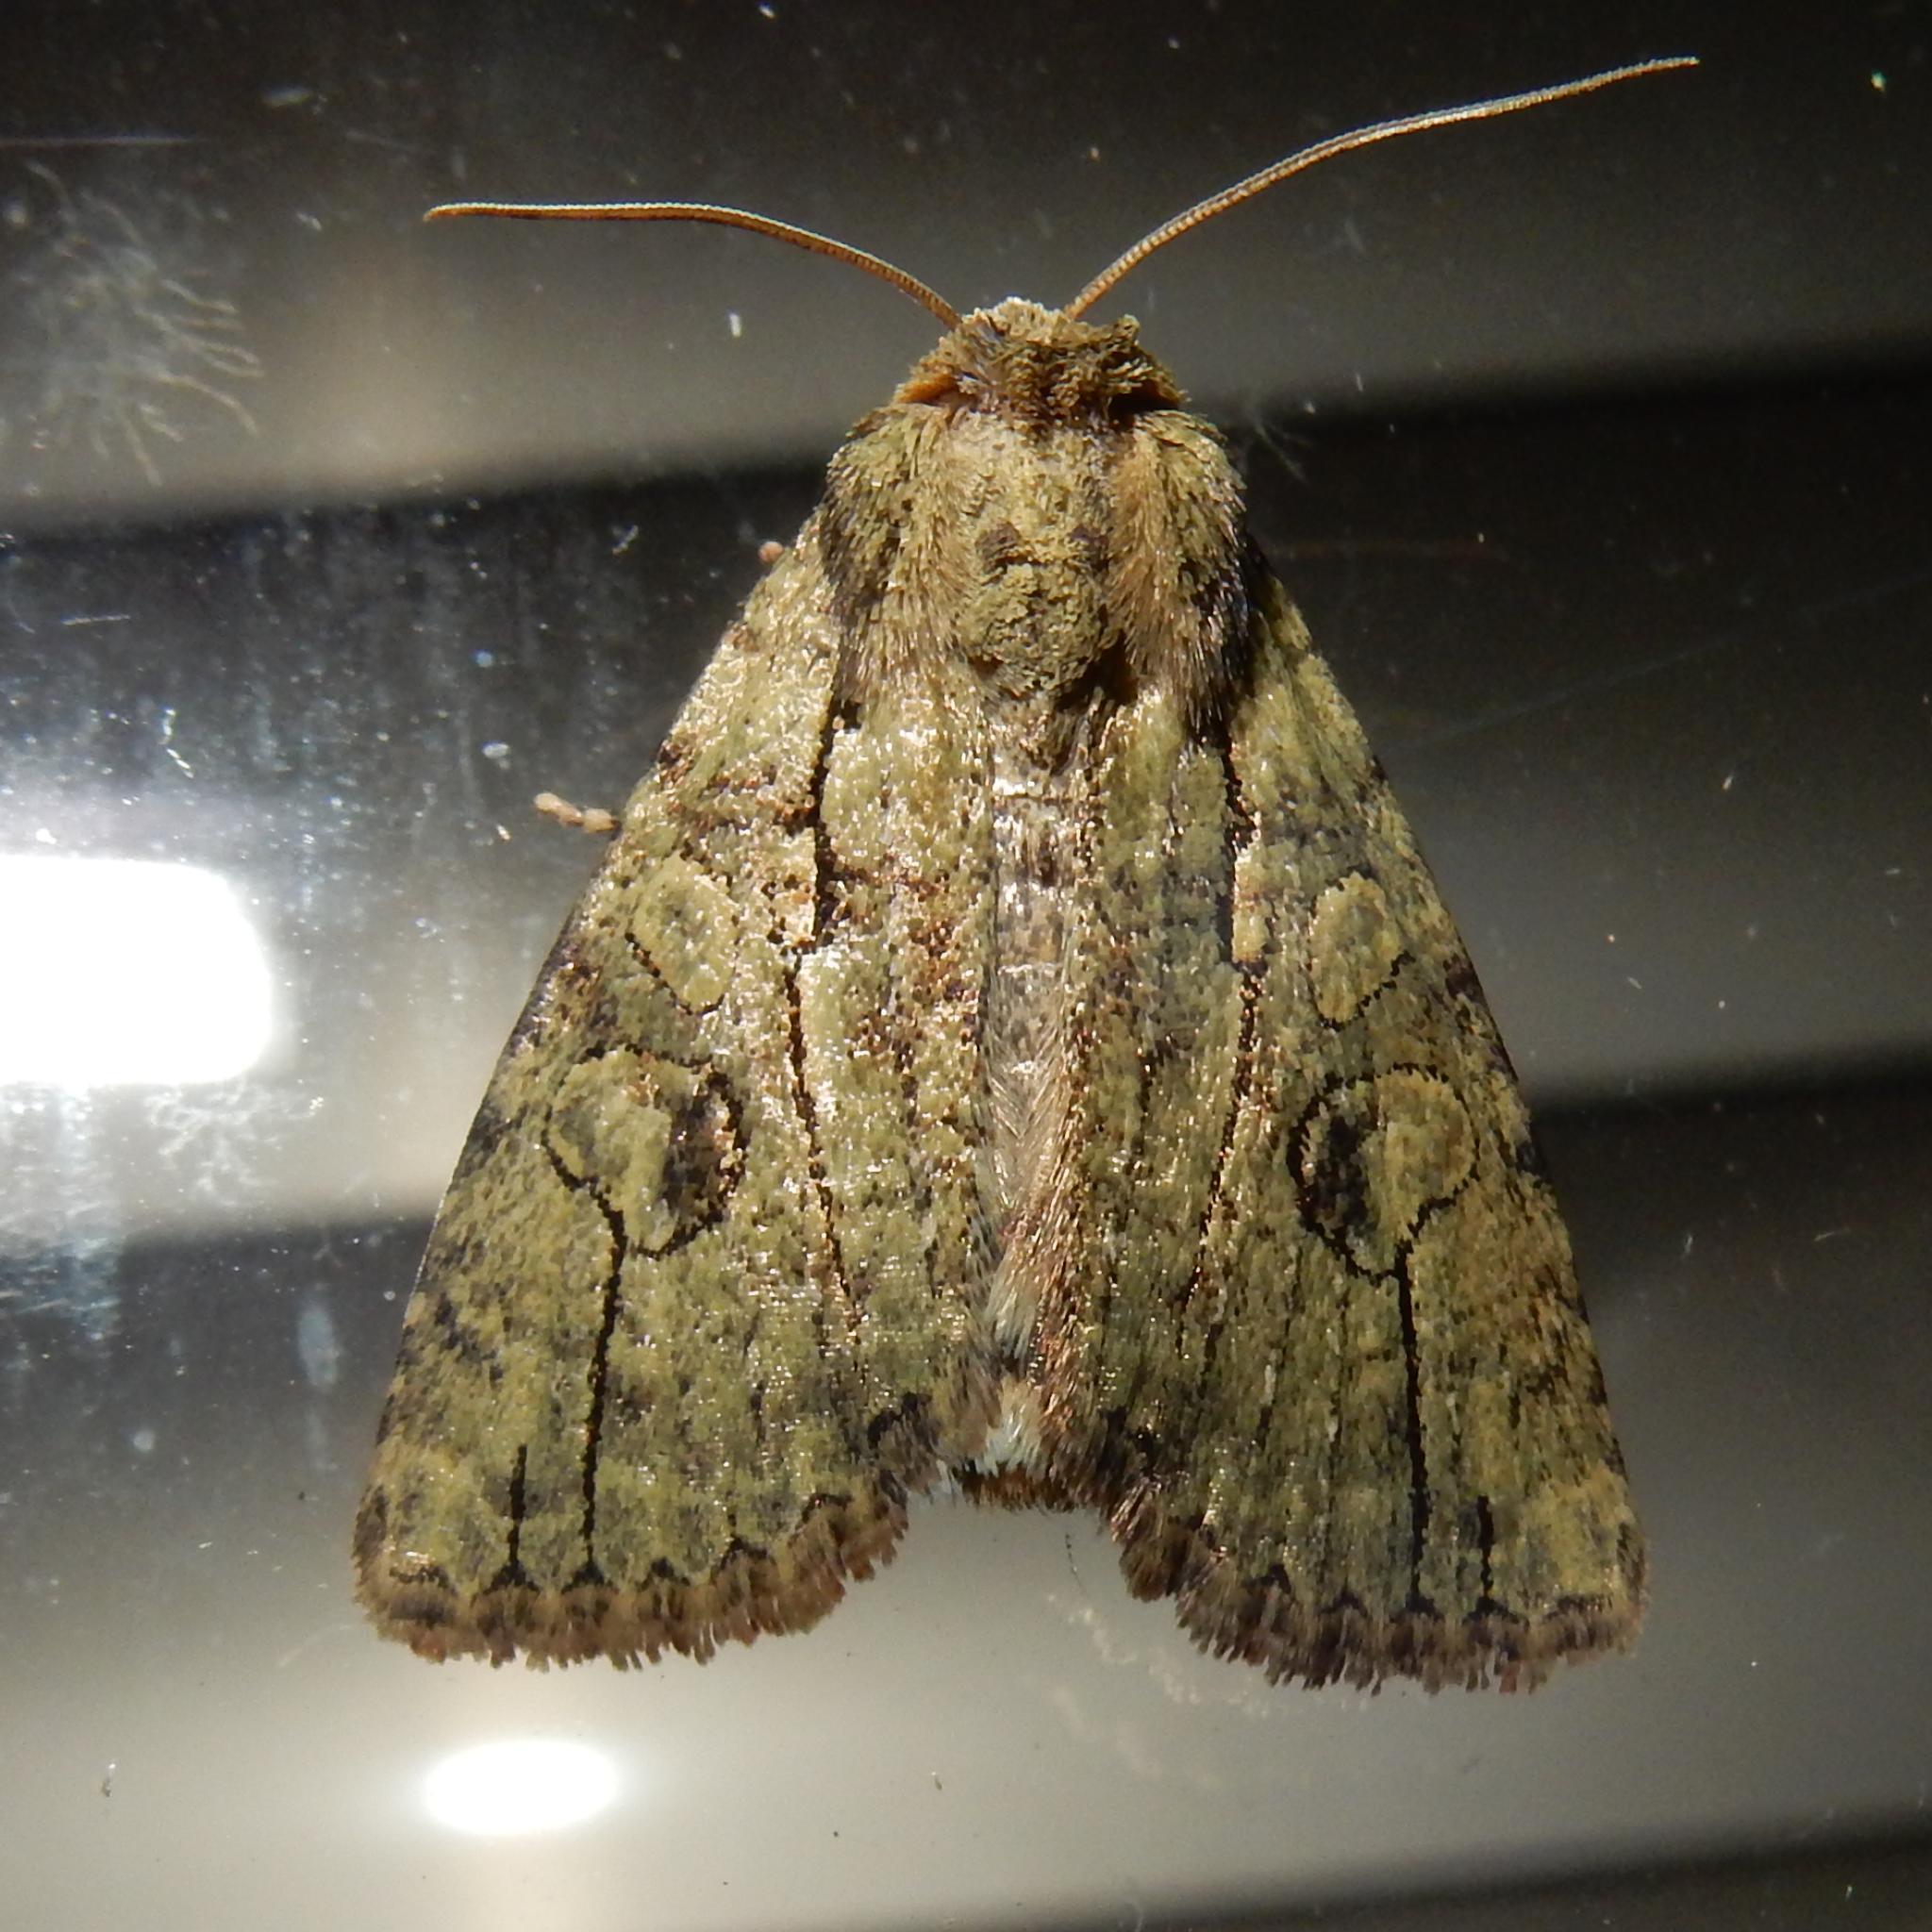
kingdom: Animalia
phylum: Arthropoda
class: Insecta
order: Lepidoptera
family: Erebidae
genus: Proconis
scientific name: Proconis abrostoloides
